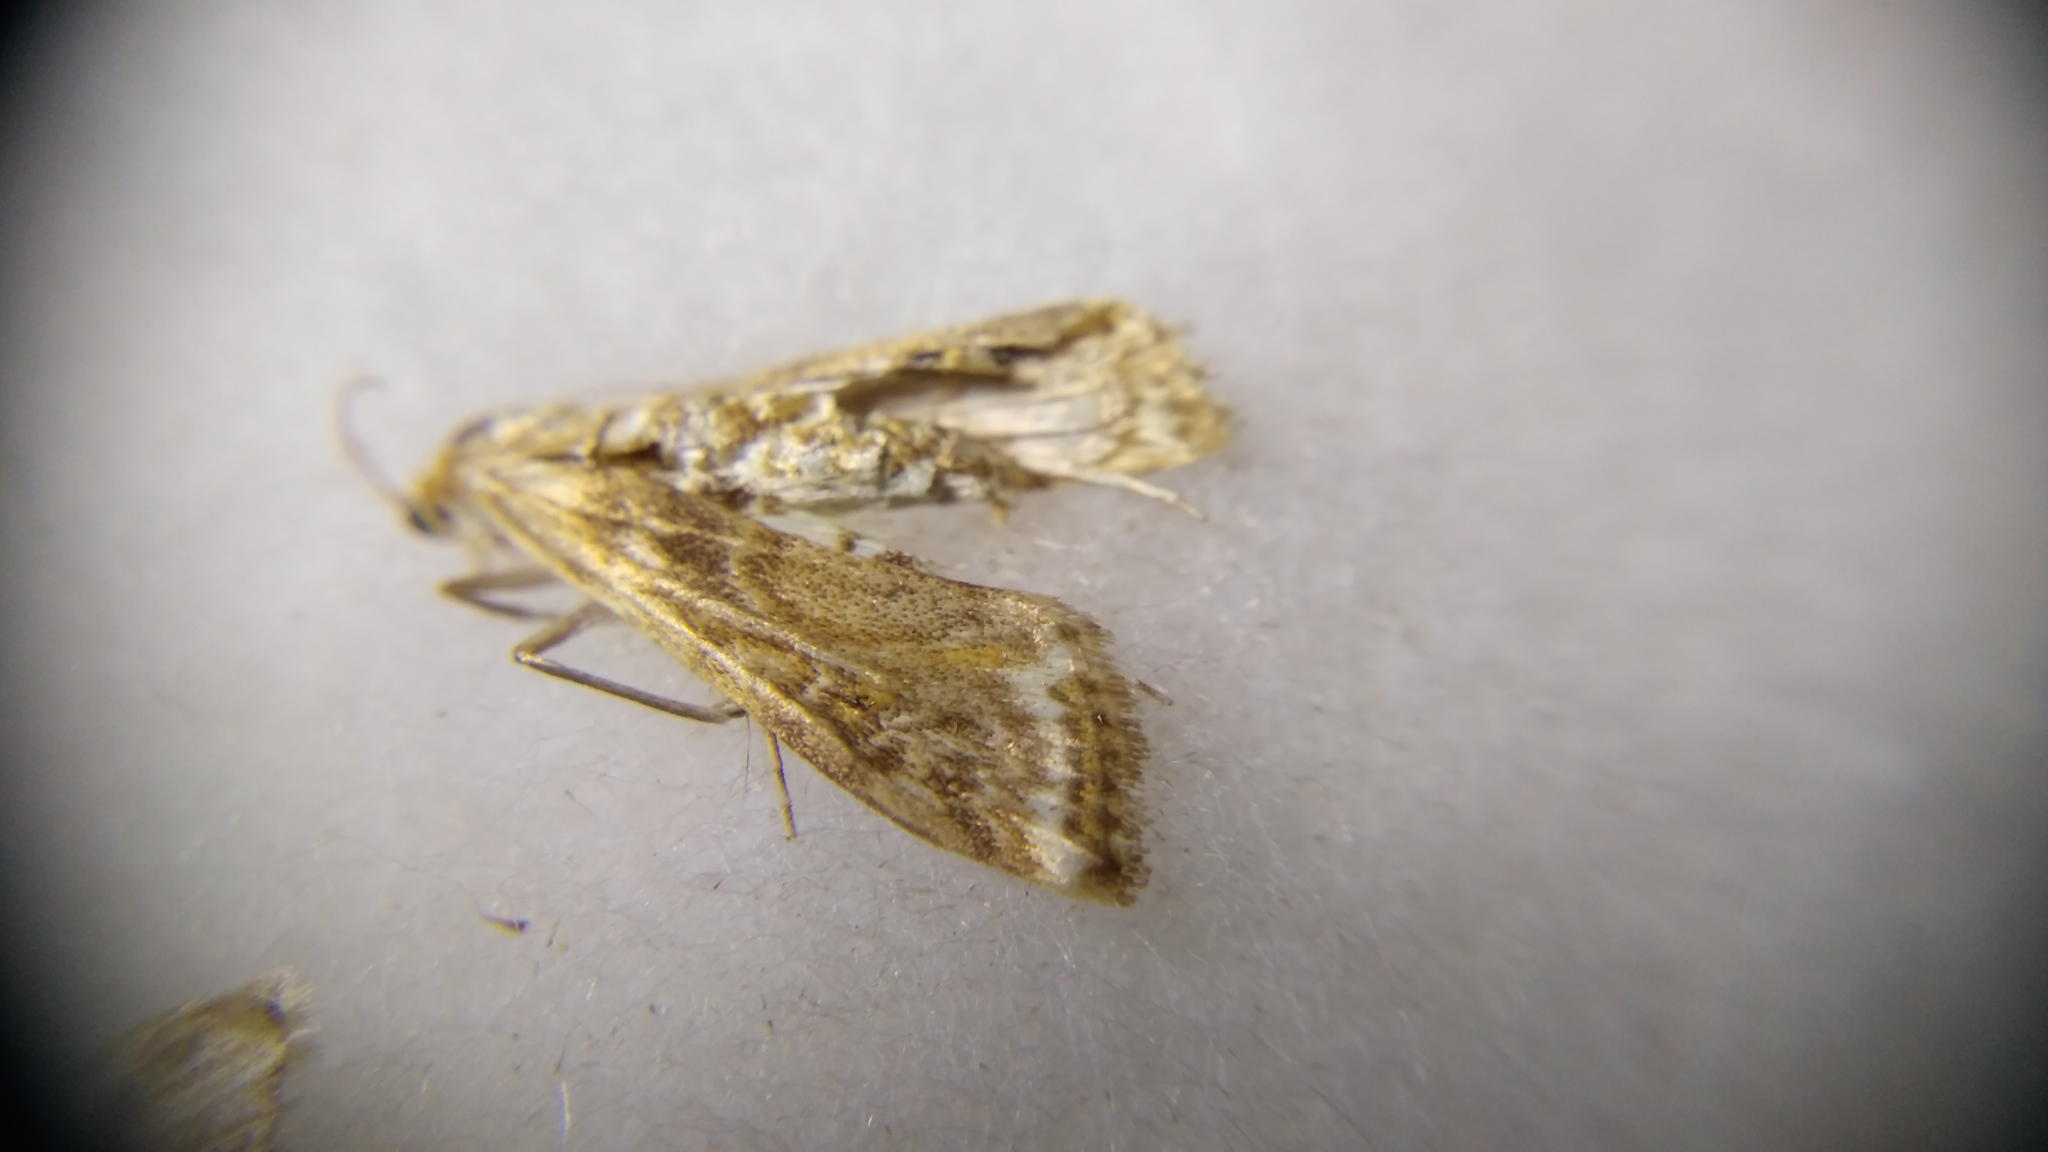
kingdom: Animalia
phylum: Arthropoda
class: Insecta
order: Lepidoptera
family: Crambidae
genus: Cataclysta
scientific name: Cataclysta lemnata
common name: Small china-mark
